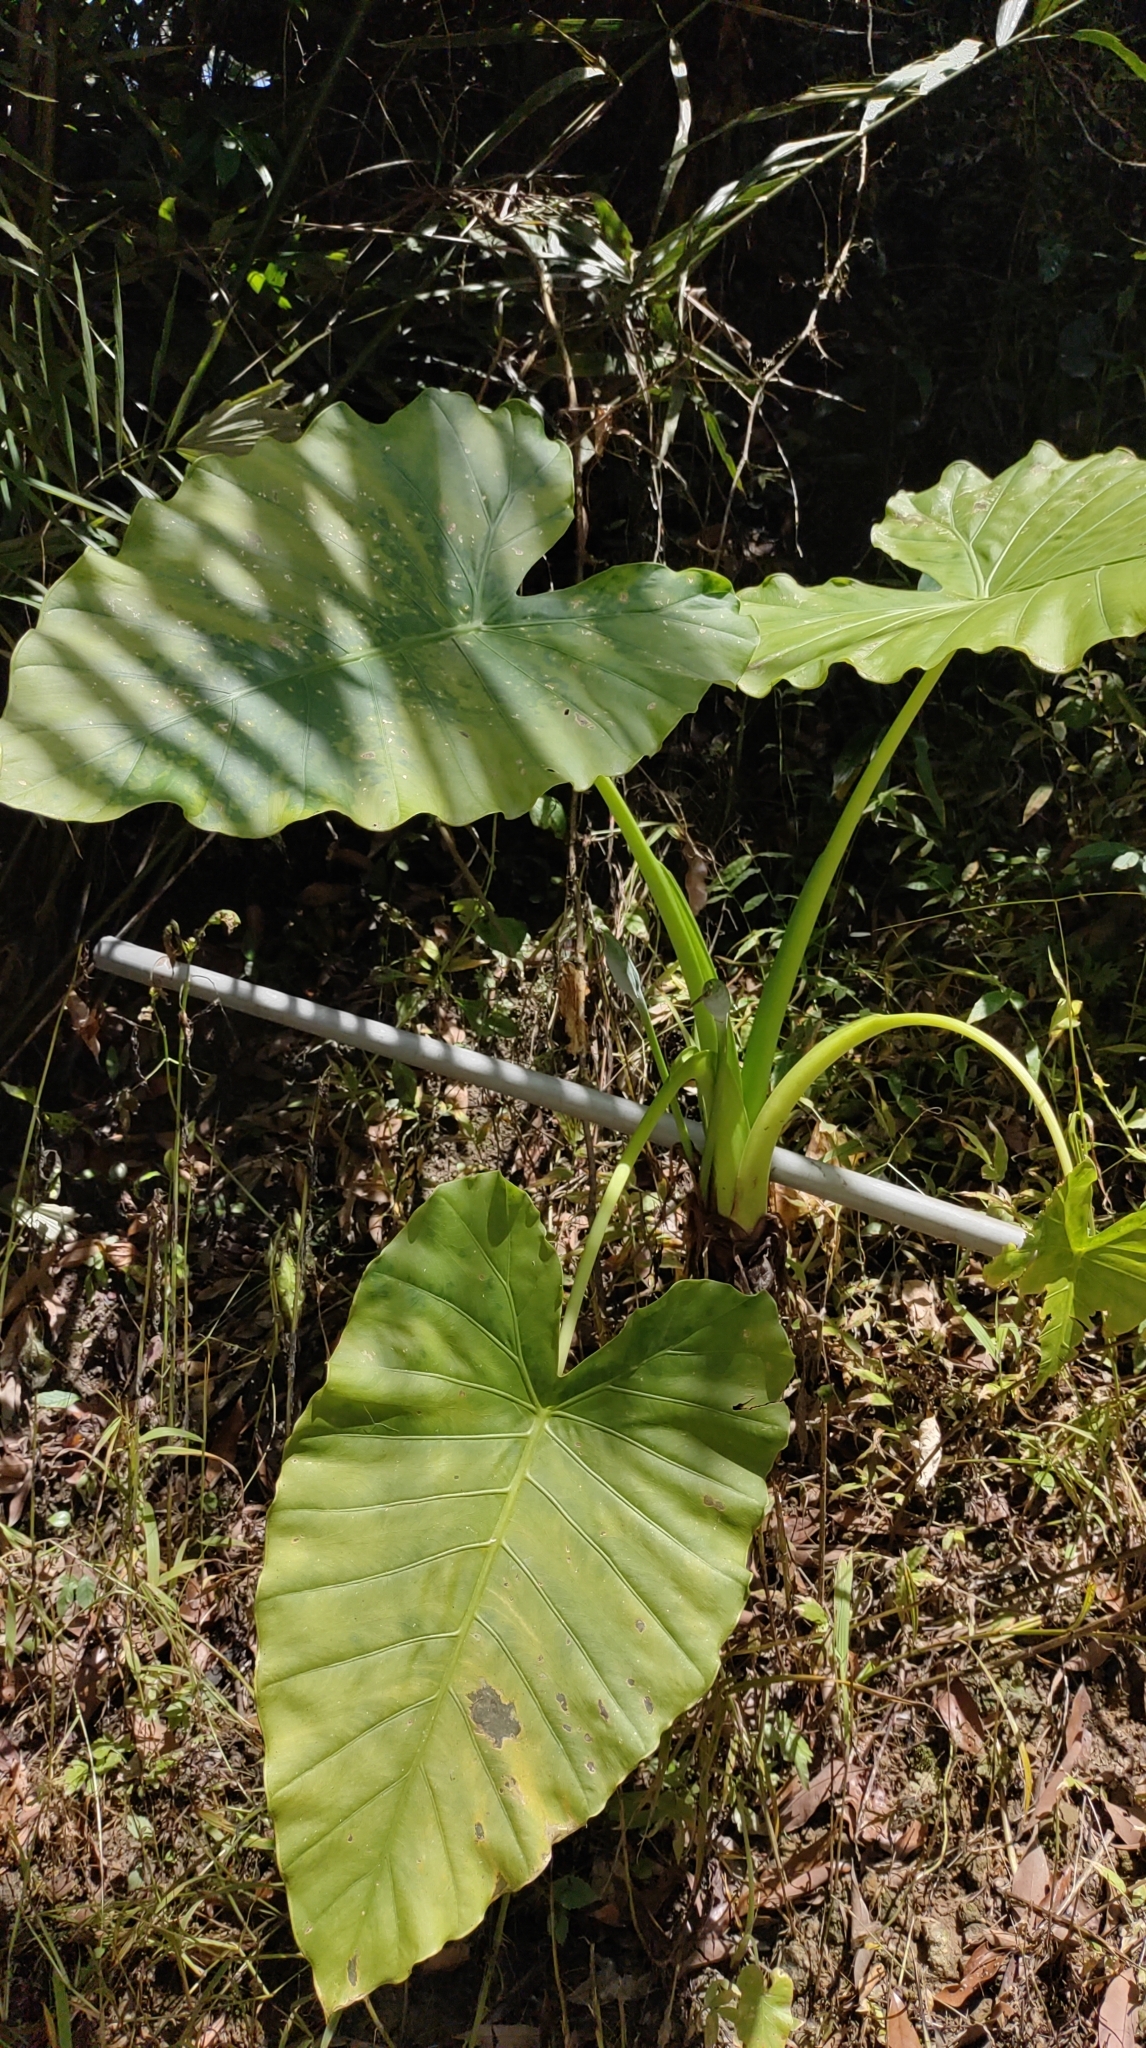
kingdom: Plantae
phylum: Tracheophyta
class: Liliopsida
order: Alismatales
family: Araceae
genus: Alocasia
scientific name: Alocasia odora
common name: Asian taro
